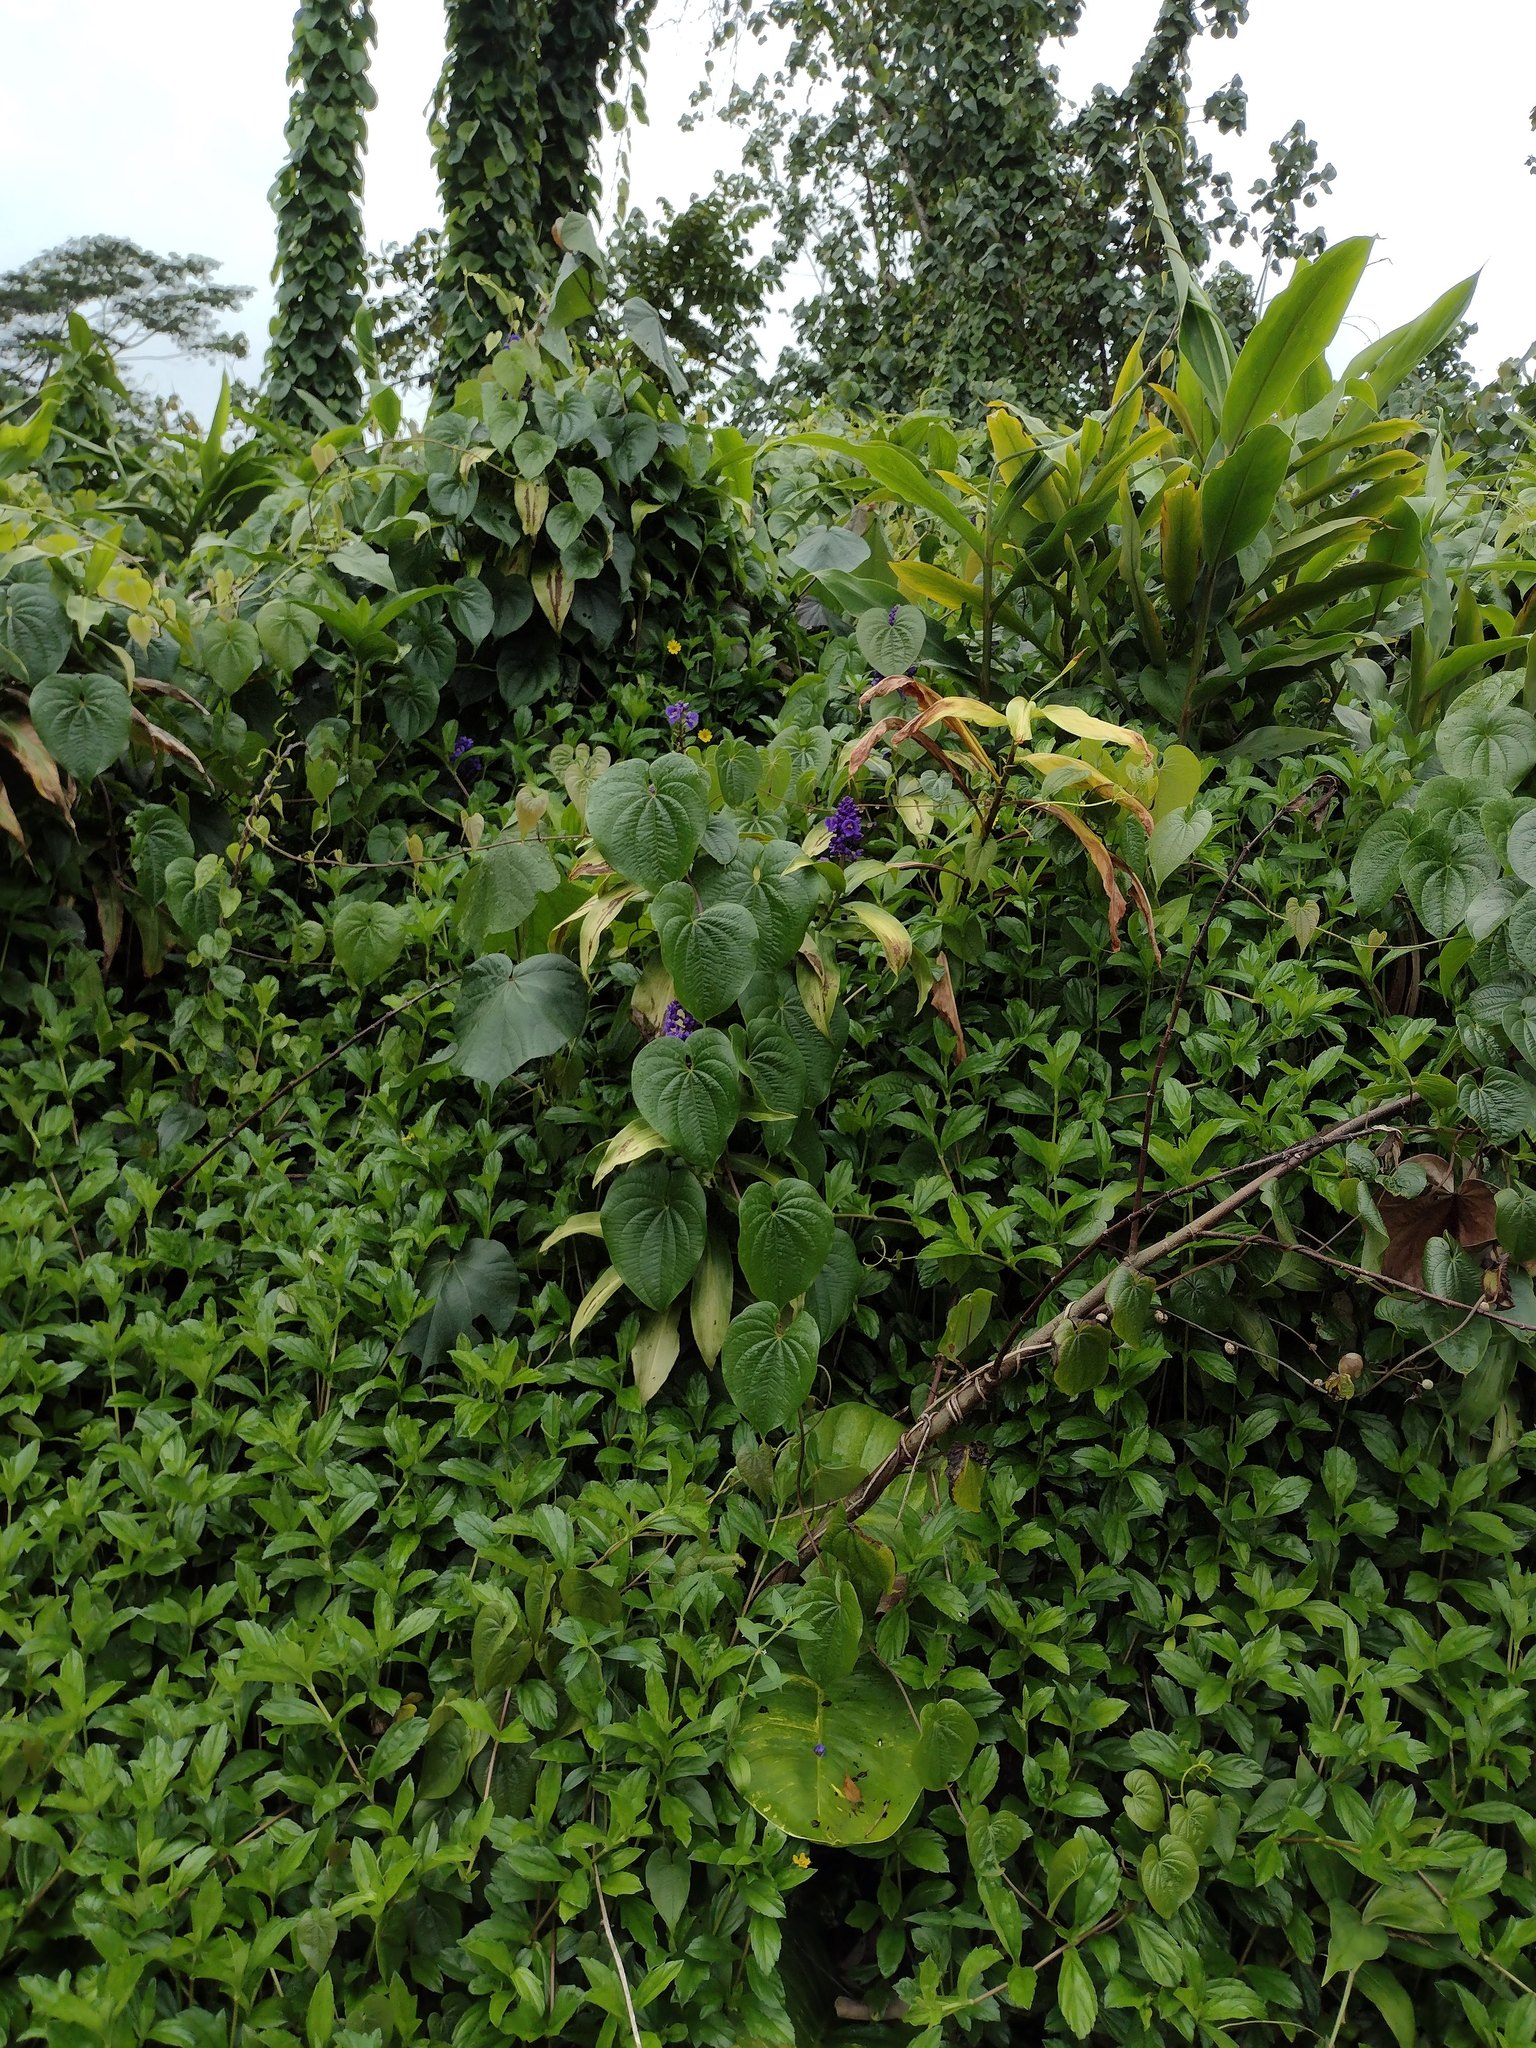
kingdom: Plantae
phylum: Tracheophyta
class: Liliopsida
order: Commelinales
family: Commelinaceae
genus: Dichorisandra
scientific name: Dichorisandra thyrsiflora
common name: Blue-ginger
